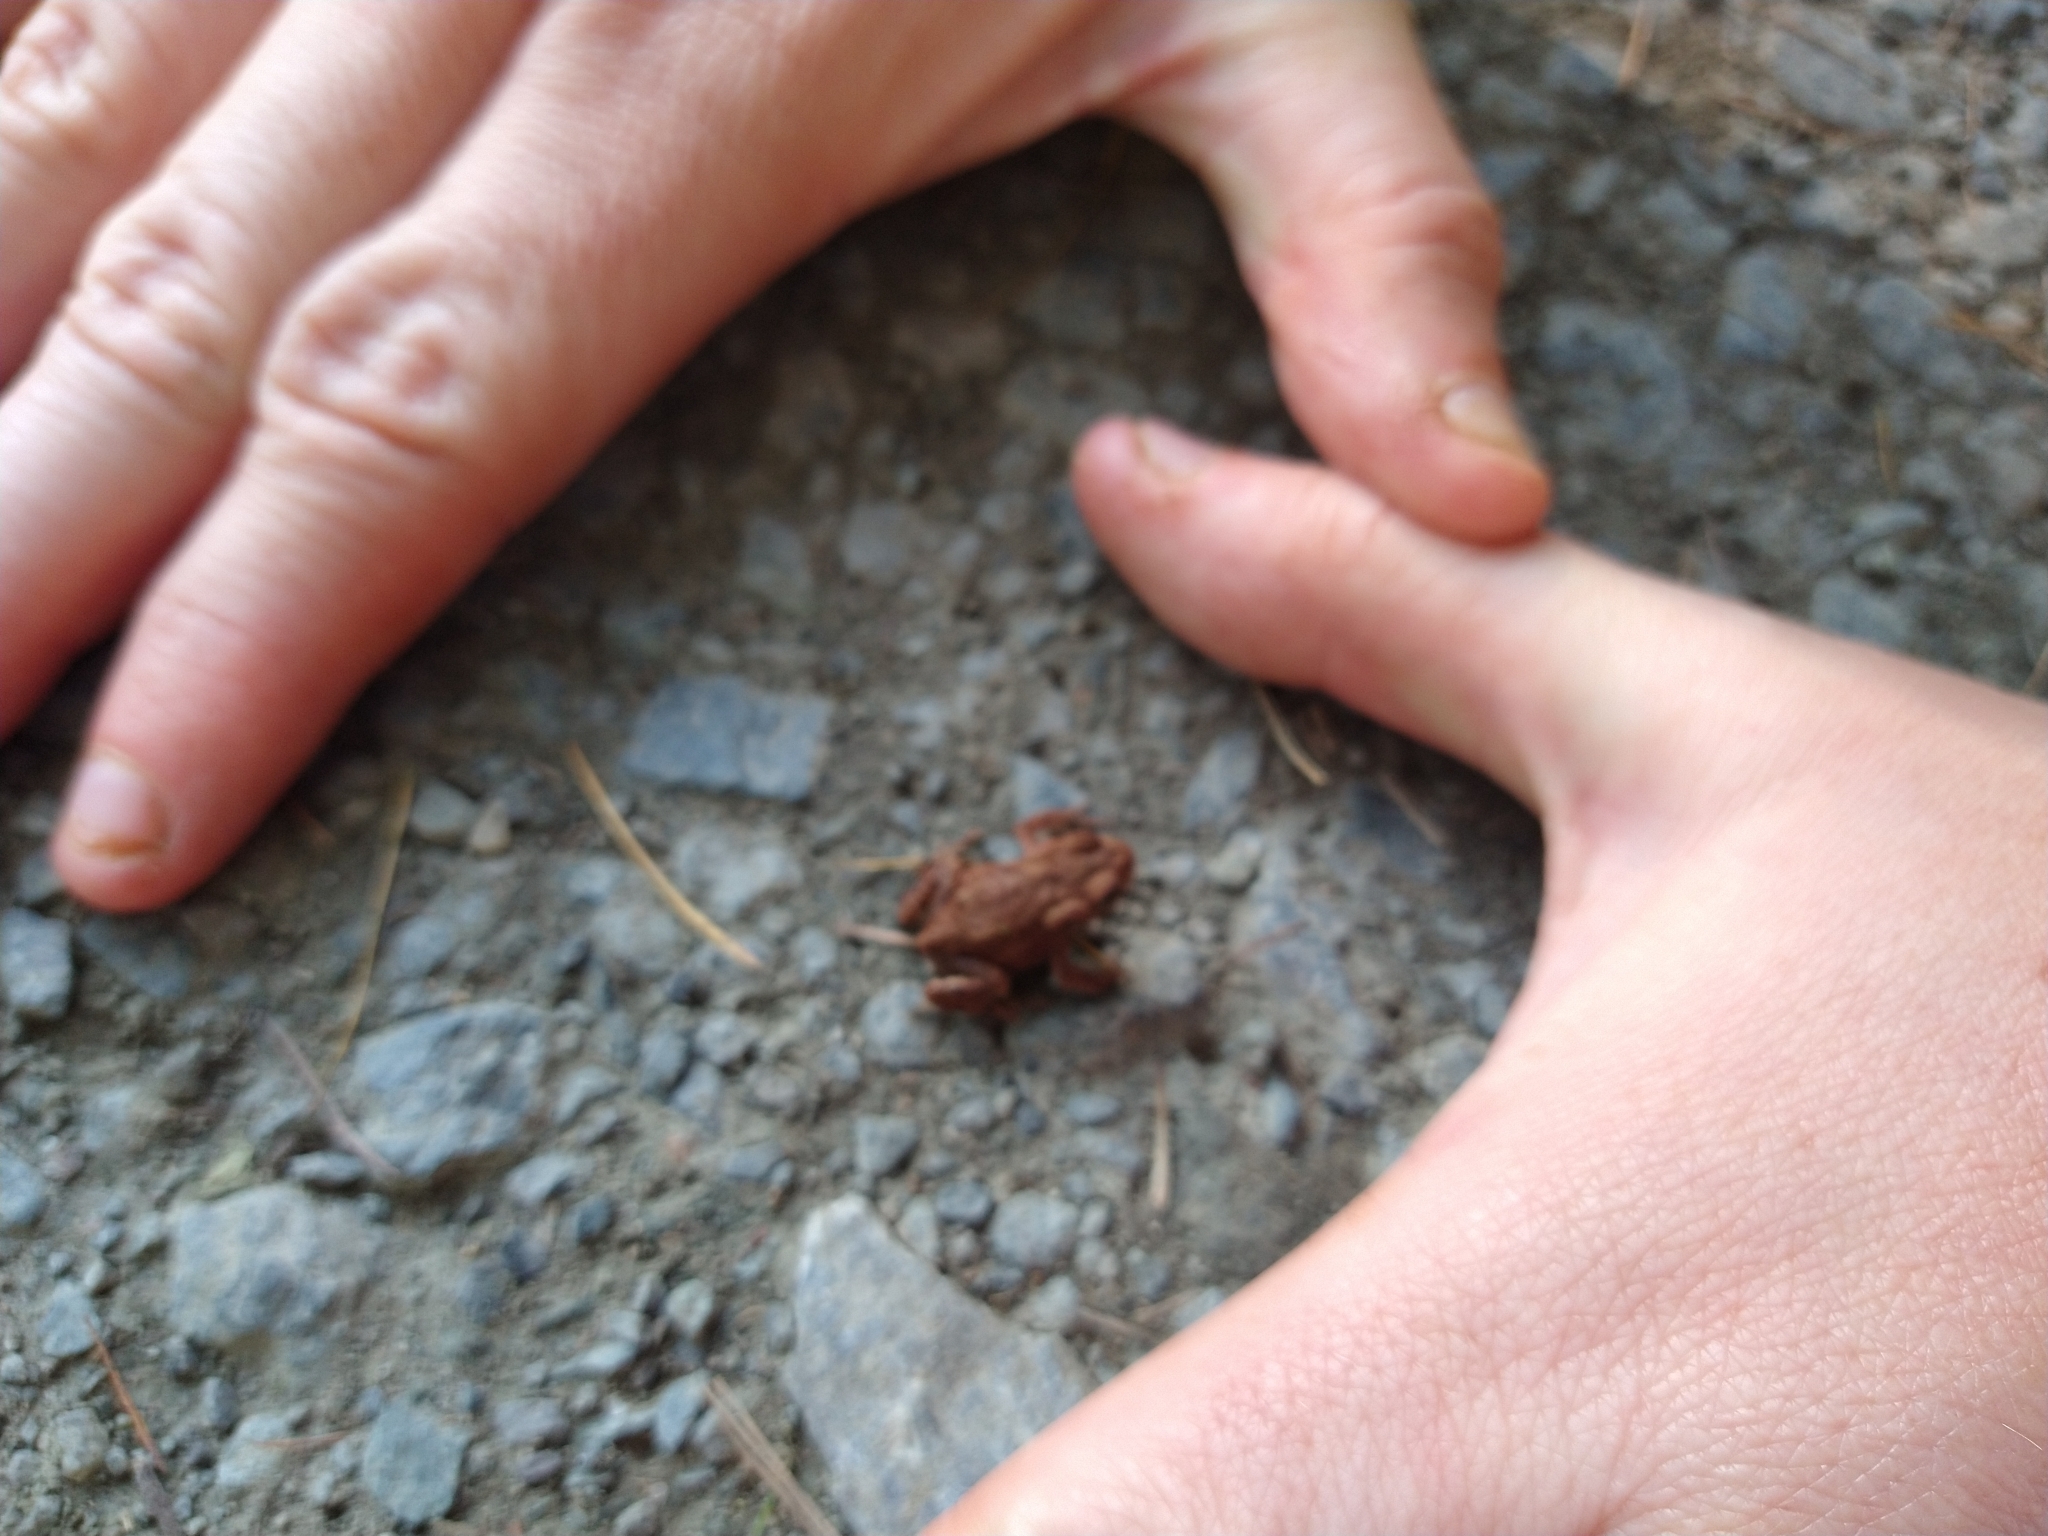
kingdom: Animalia
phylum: Chordata
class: Amphibia
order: Anura
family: Bufonidae
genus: Bufo
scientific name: Bufo bufo
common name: Common toad
